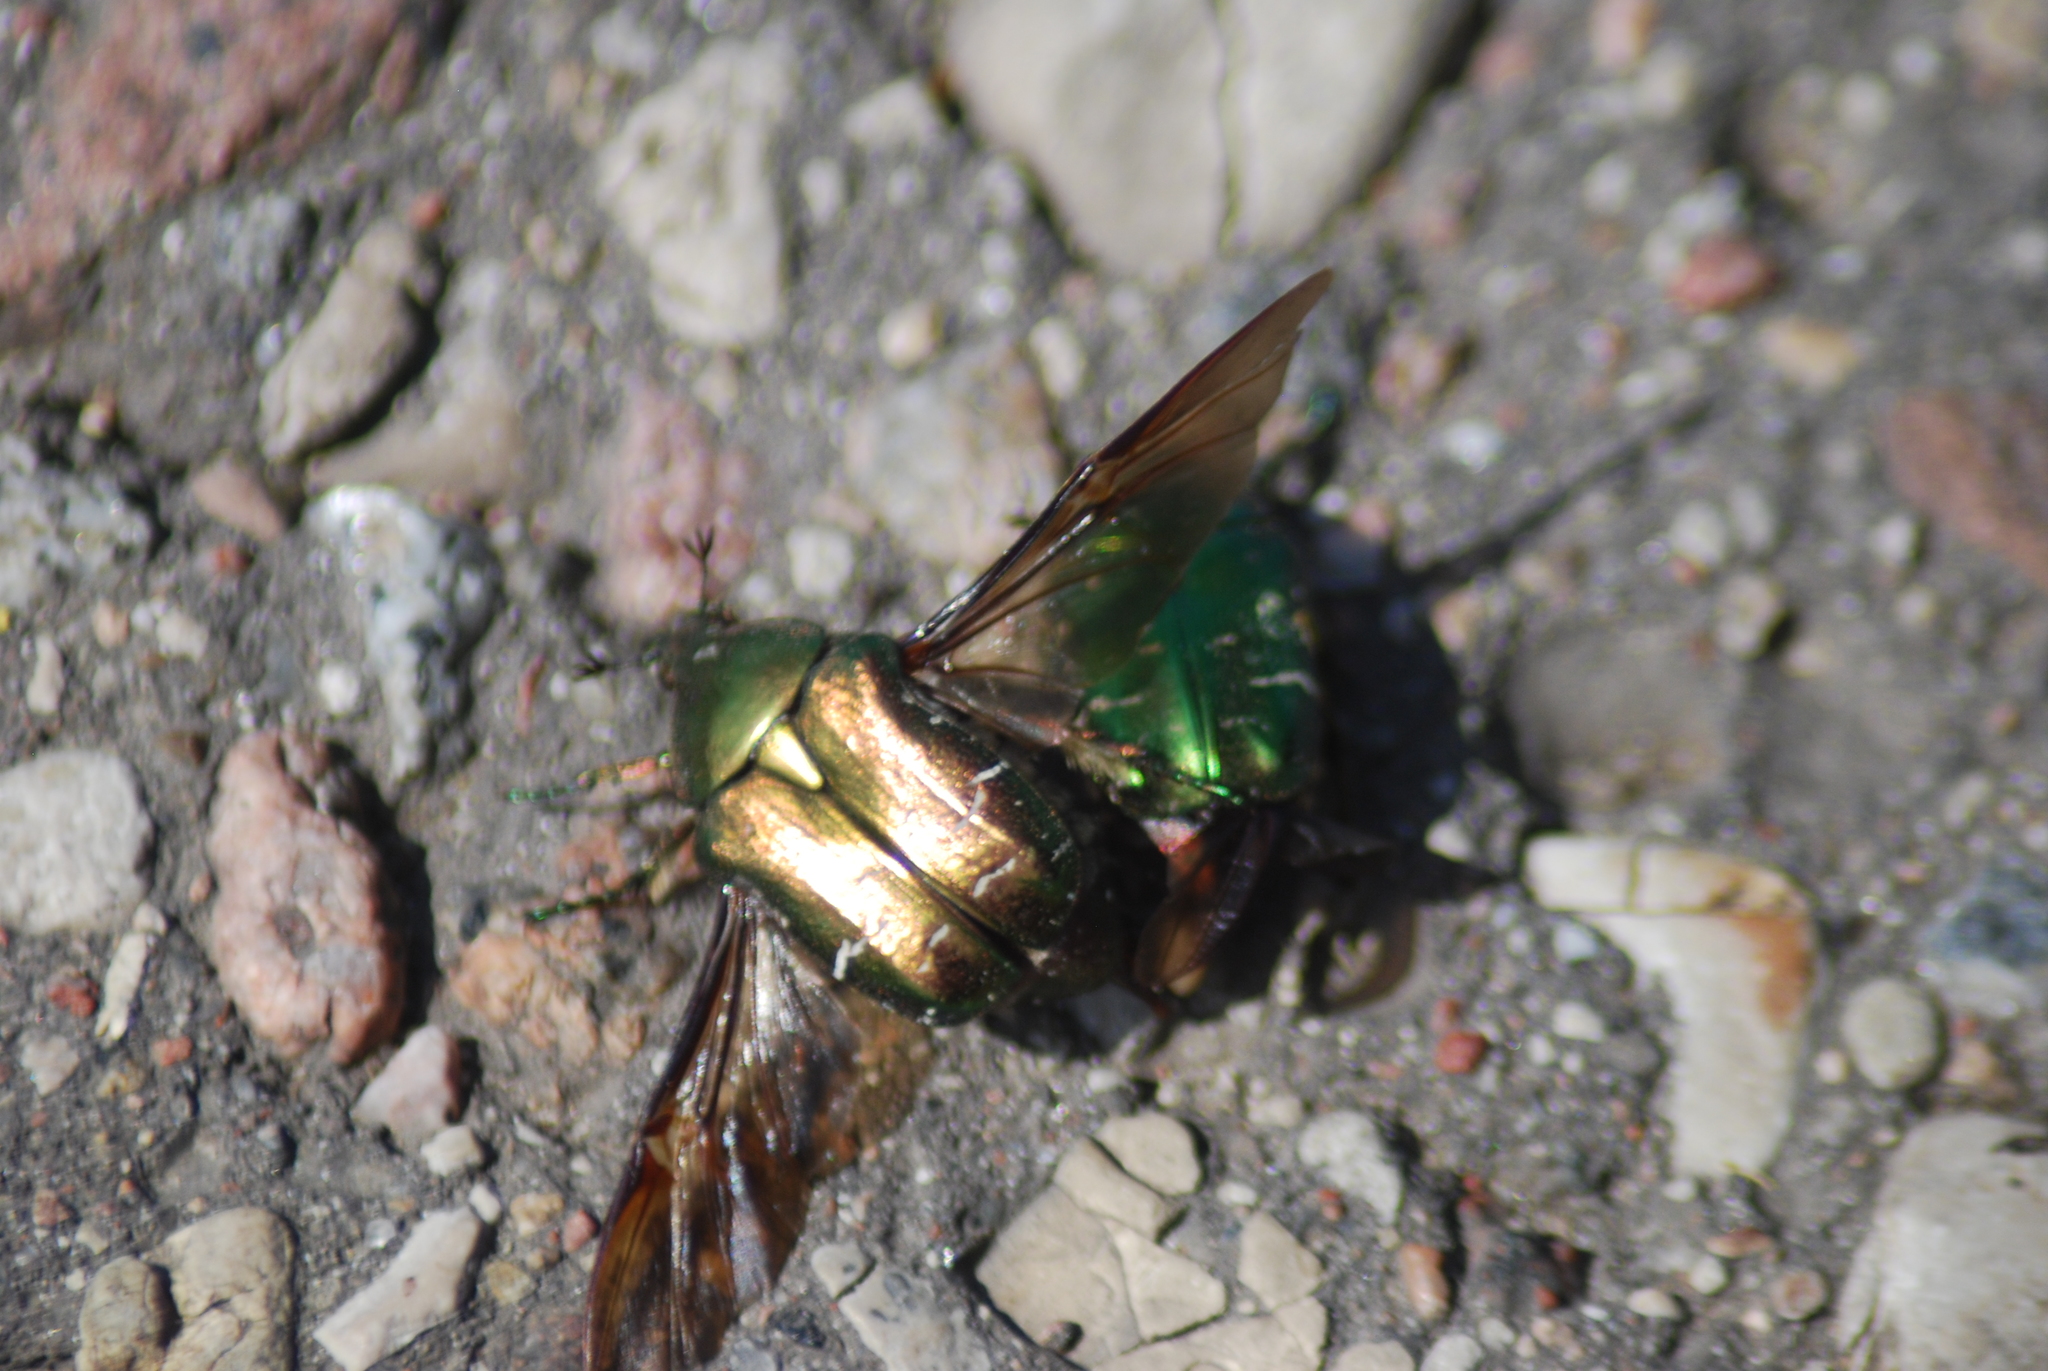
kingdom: Animalia
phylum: Arthropoda
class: Insecta
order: Coleoptera
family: Scarabaeidae
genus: Cetonia
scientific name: Cetonia aurata
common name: Rose chafer
